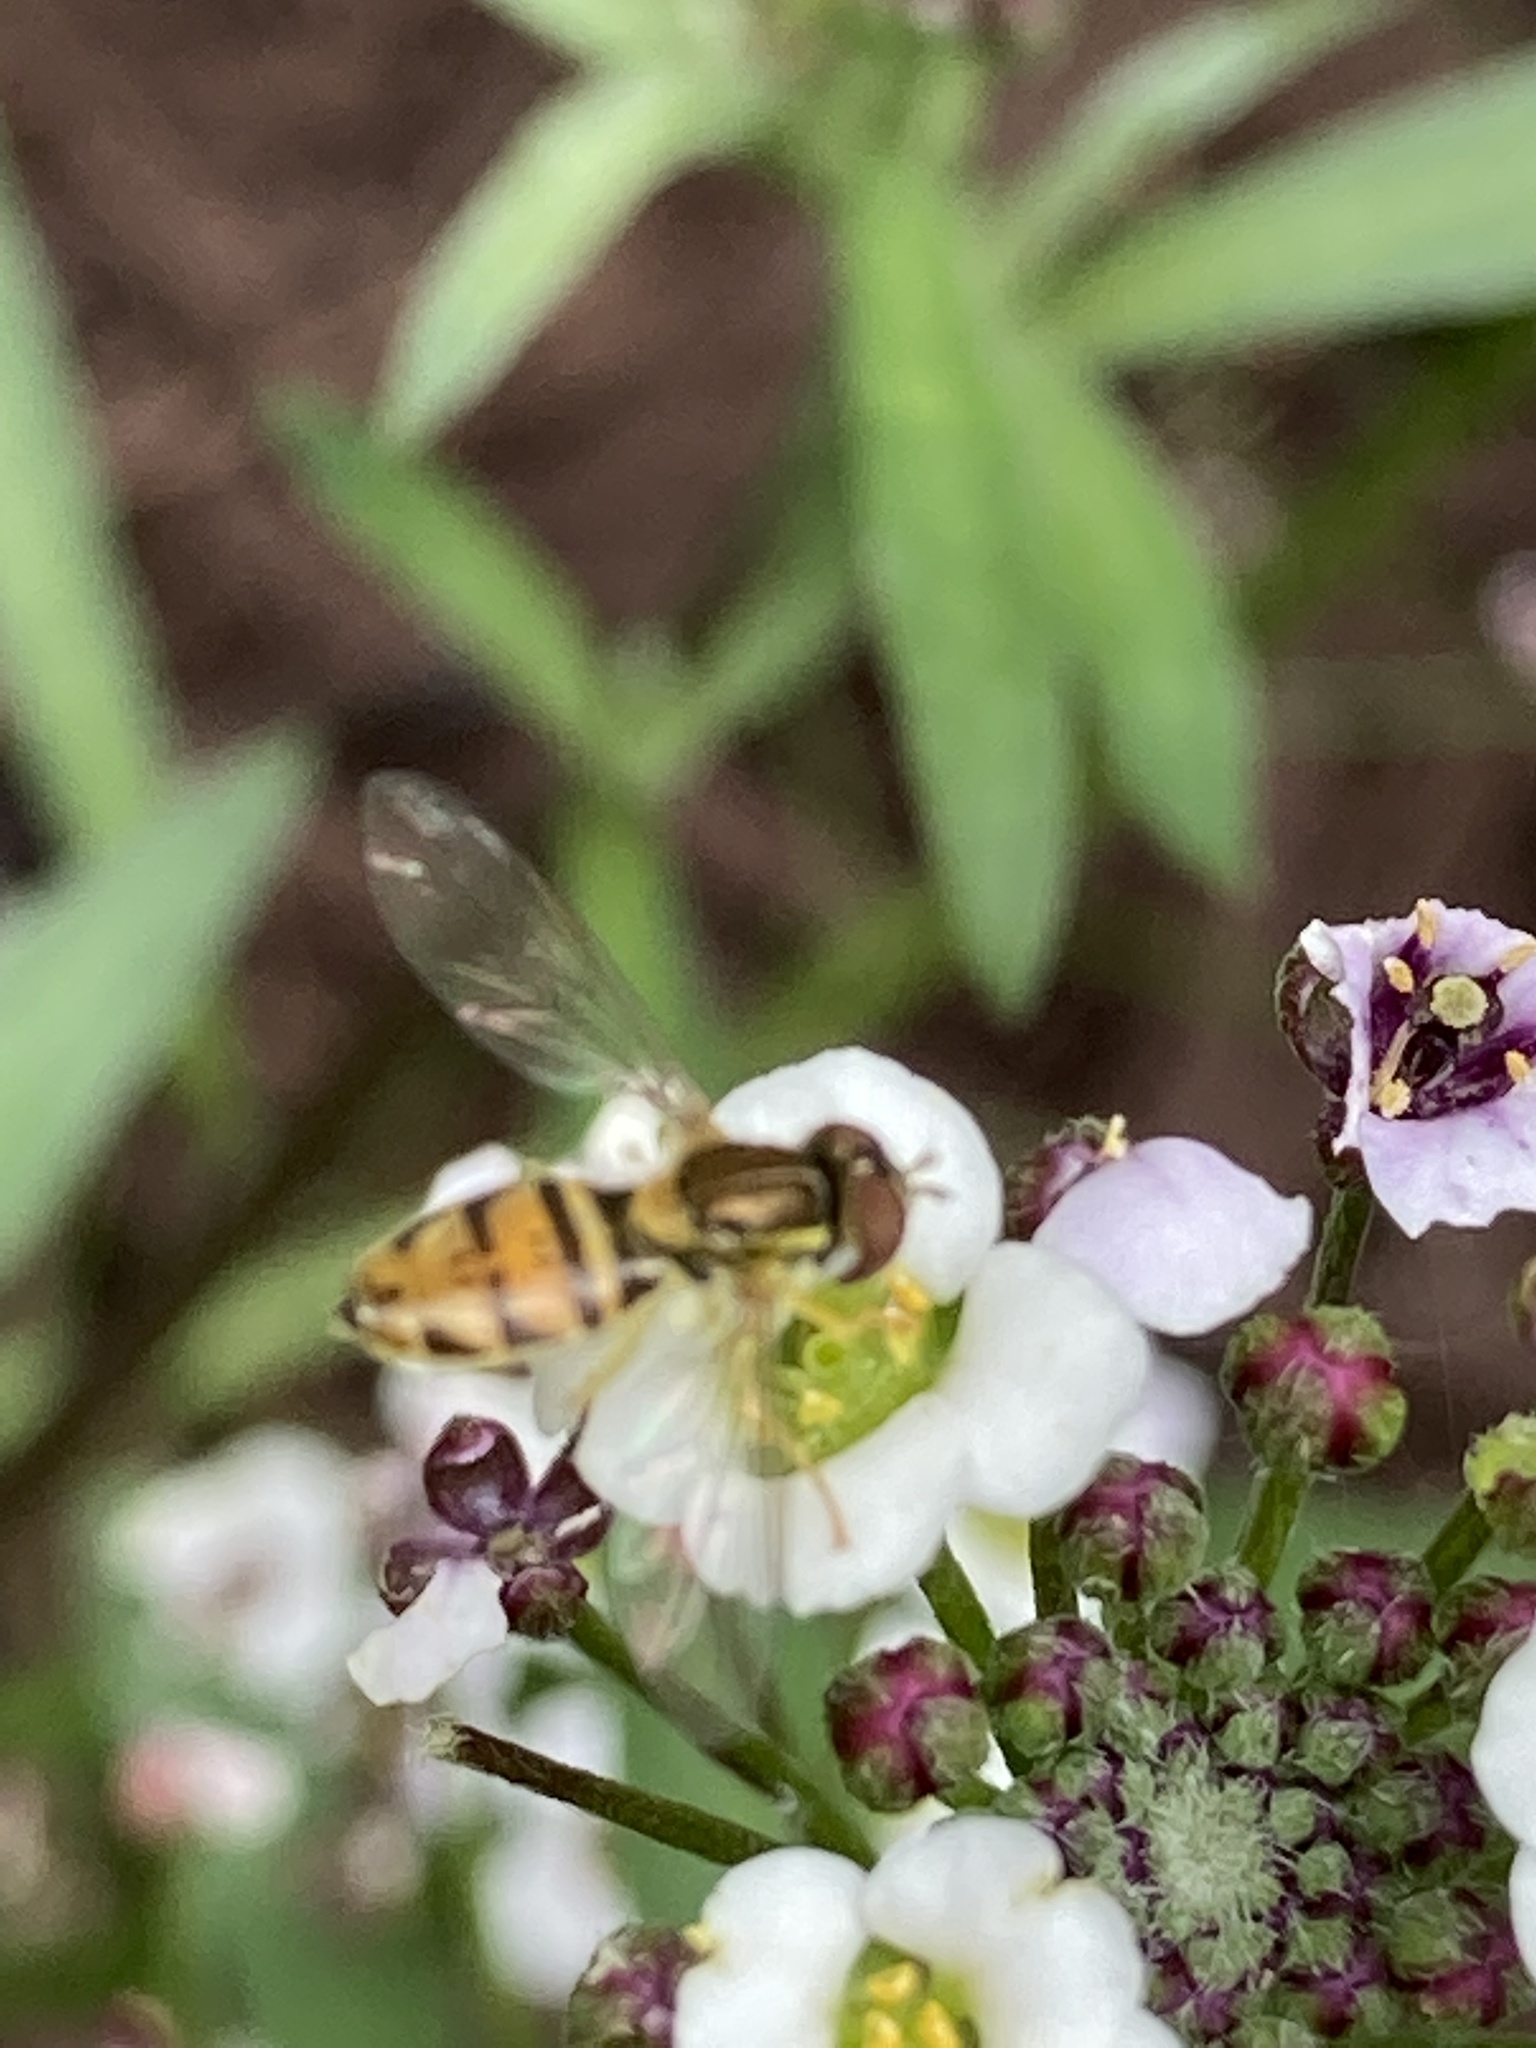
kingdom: Animalia
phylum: Arthropoda
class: Insecta
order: Diptera
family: Syrphidae
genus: Toxomerus
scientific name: Toxomerus marginatus
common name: Syrphid fly
